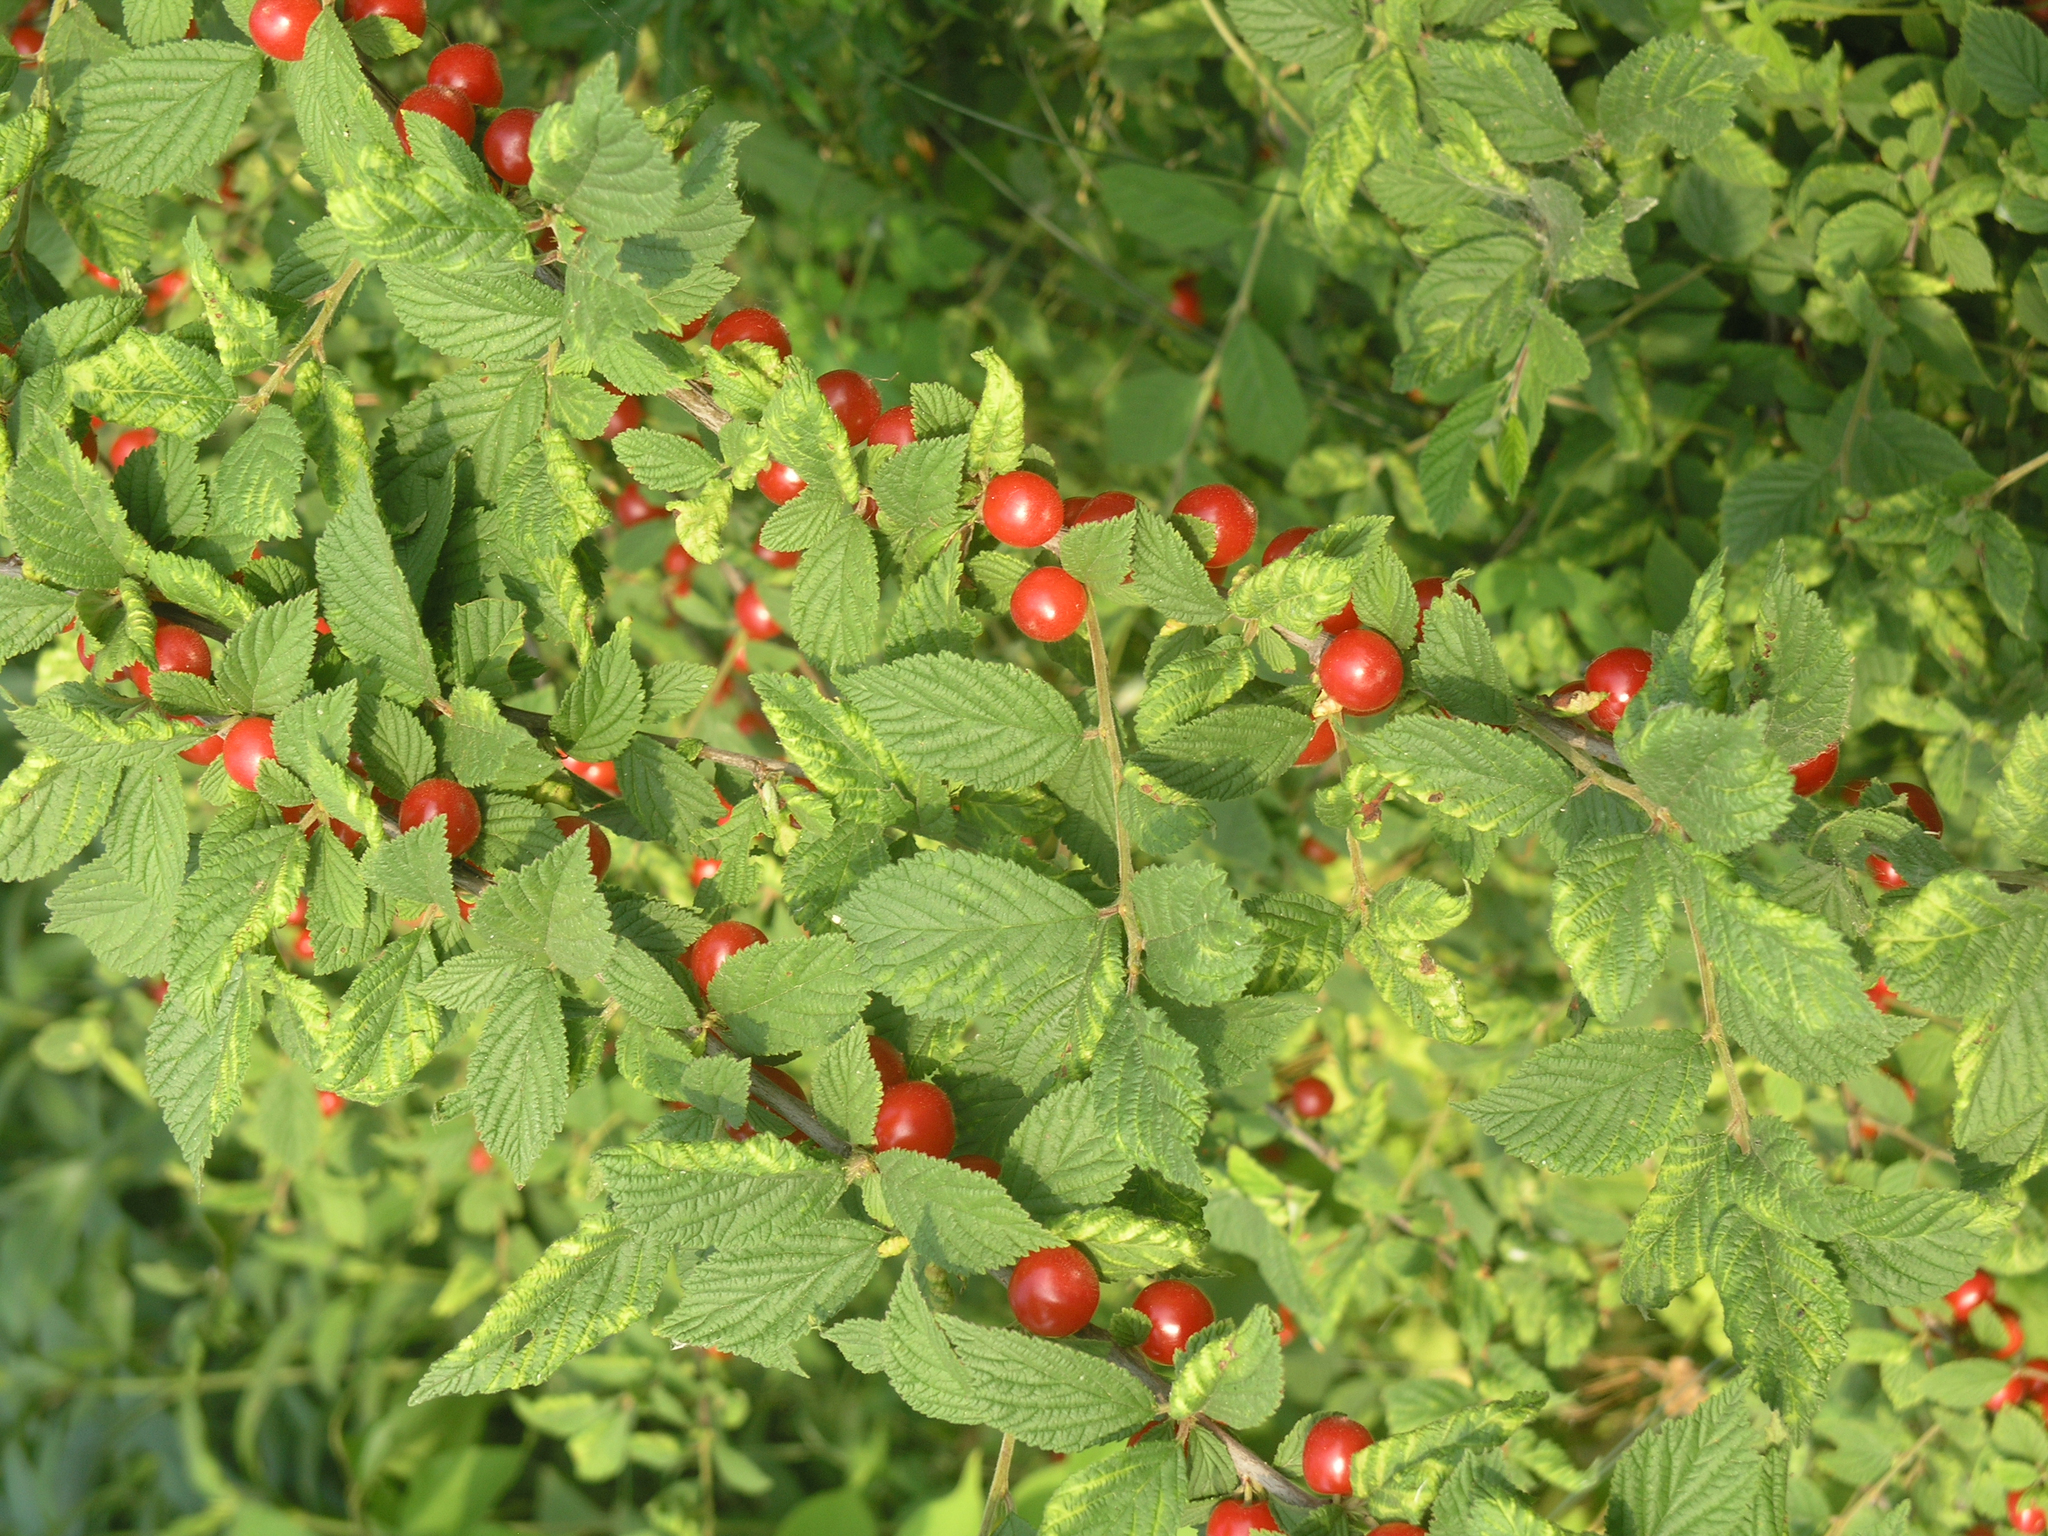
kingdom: Plantae
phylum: Tracheophyta
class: Magnoliopsida
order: Rosales
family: Rosaceae
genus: Prunus
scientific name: Prunus tomentosa
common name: Nanking cherry
